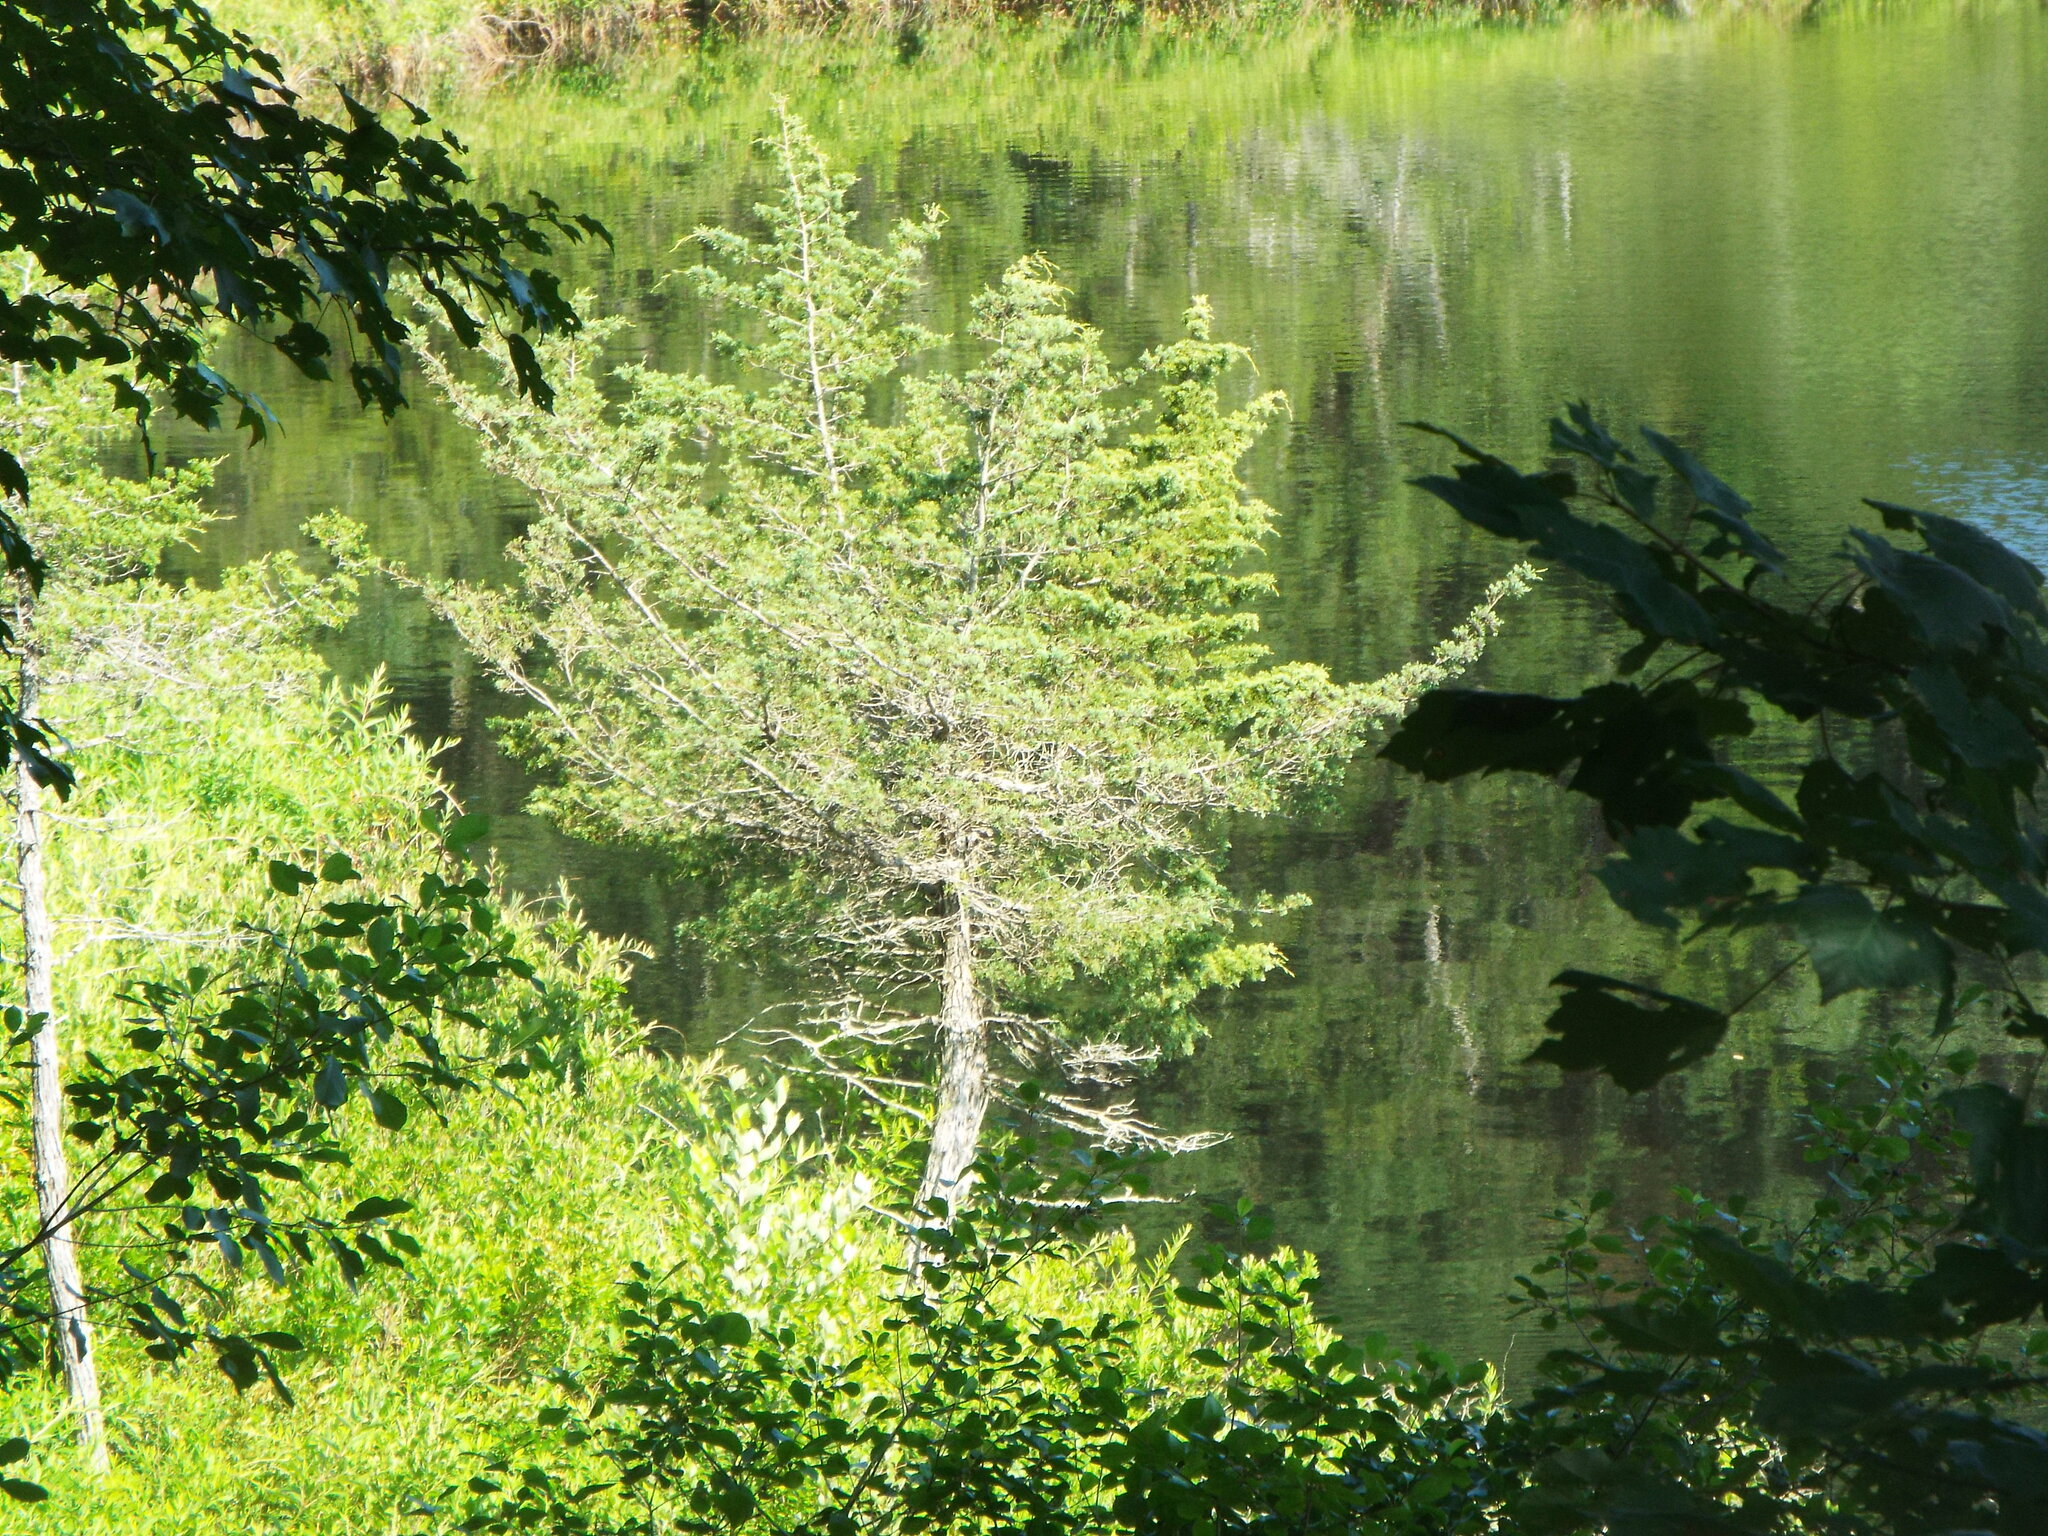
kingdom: Plantae
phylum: Tracheophyta
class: Pinopsida
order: Pinales
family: Cupressaceae
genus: Chamaecyparis
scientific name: Chamaecyparis thyoides
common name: Atlantic white cedar
